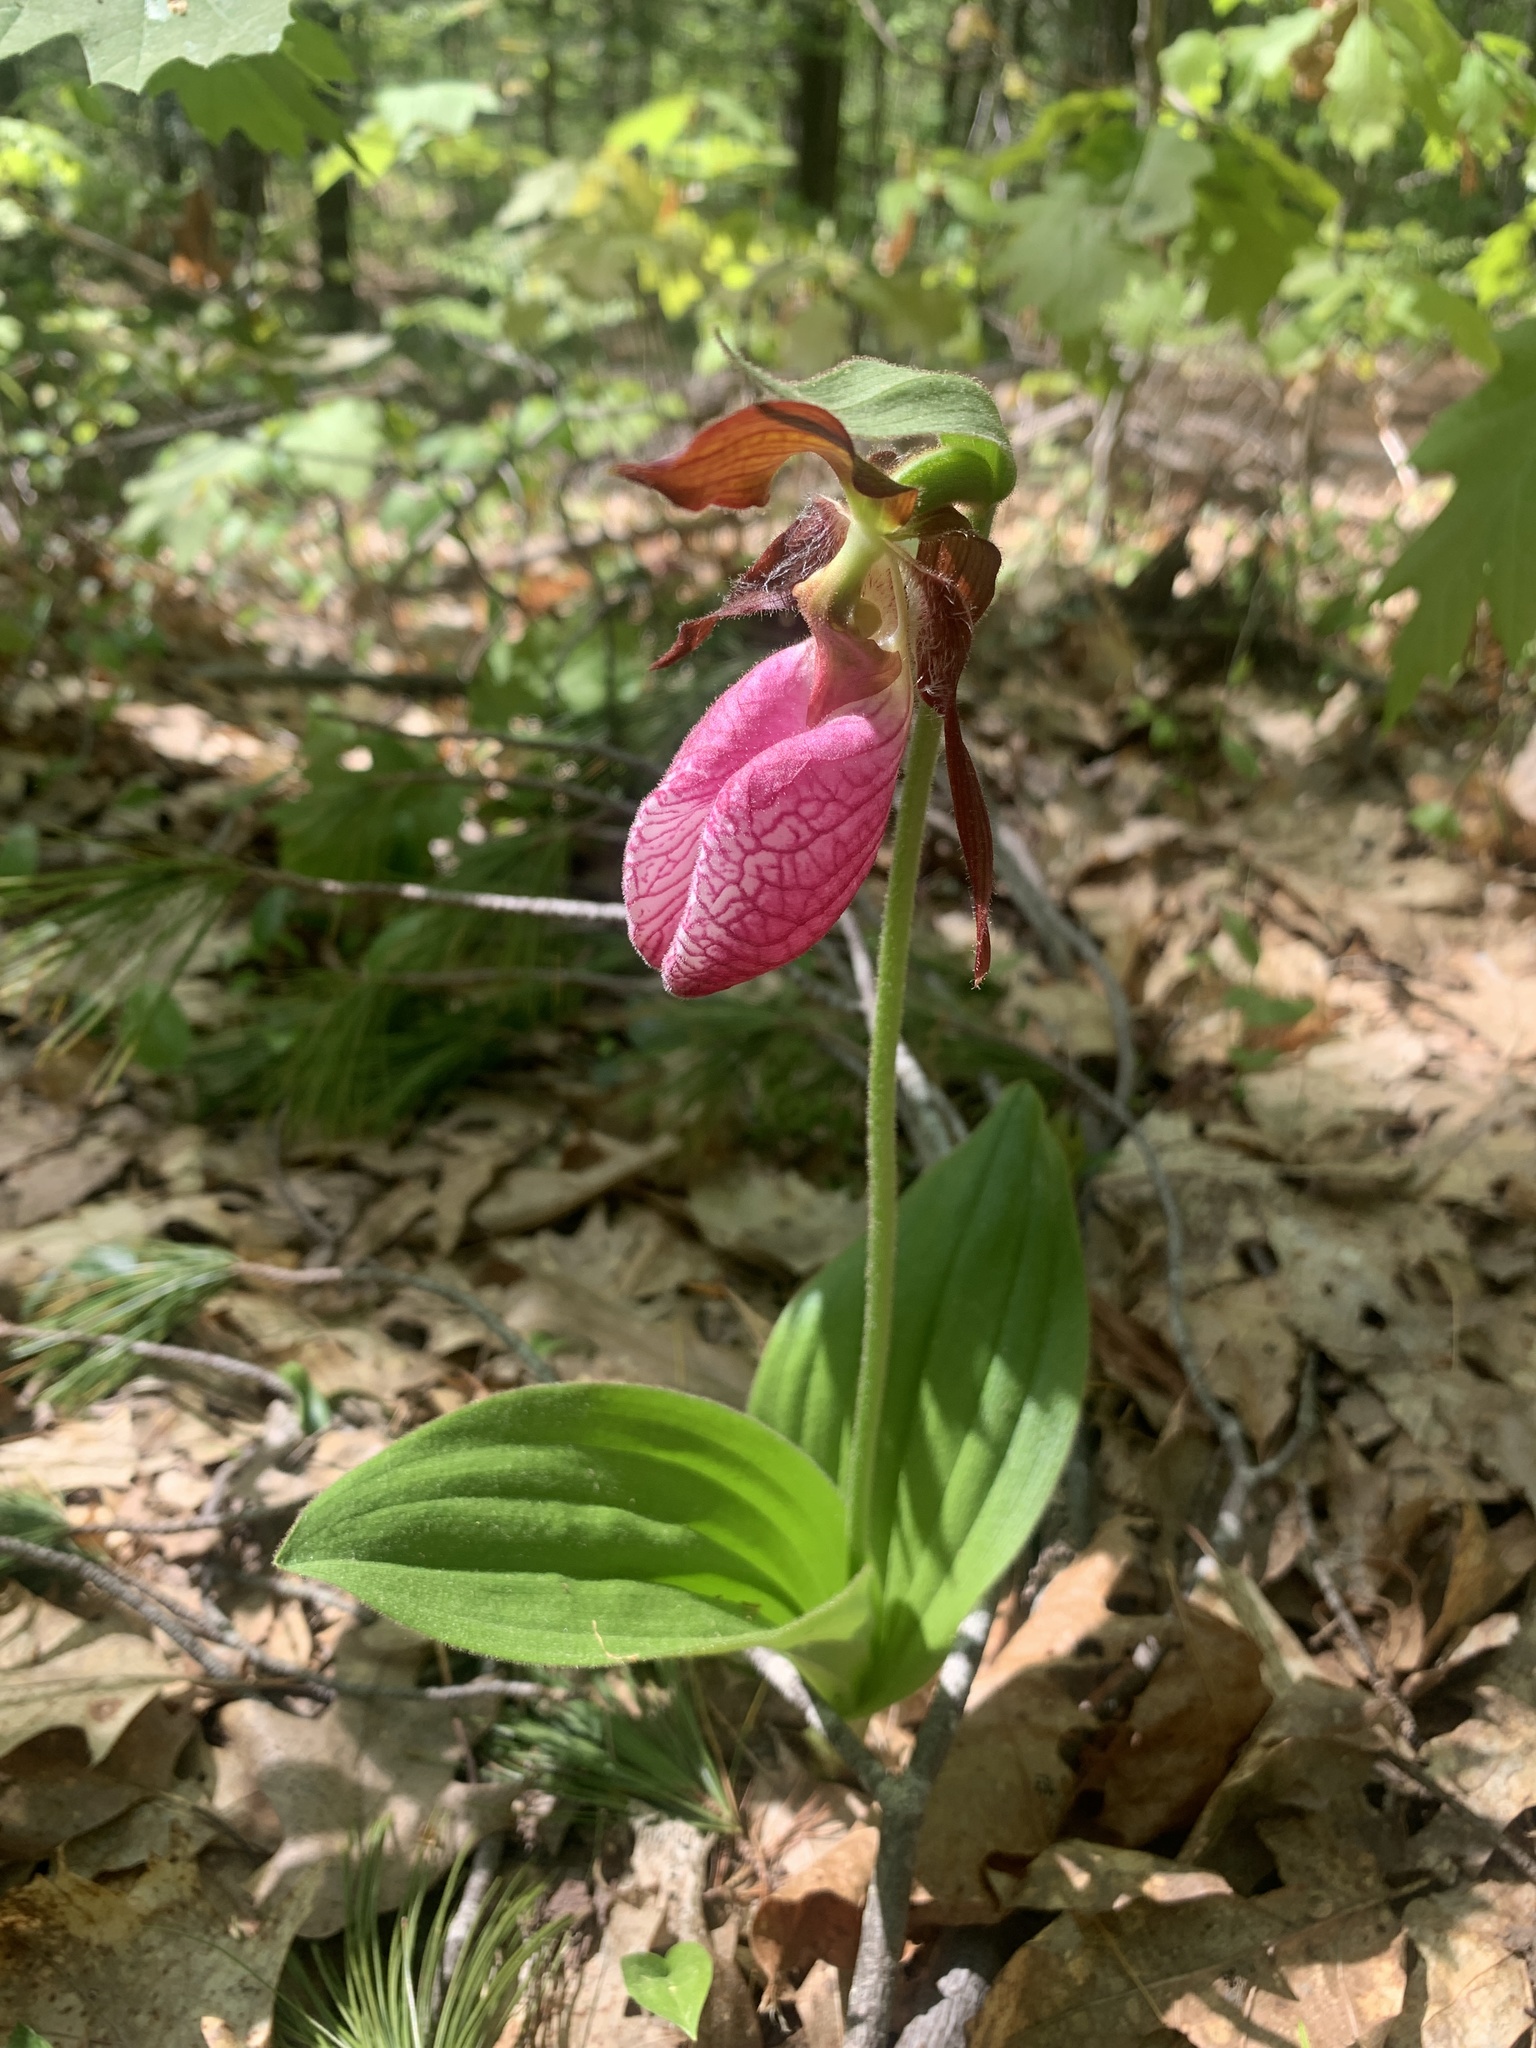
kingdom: Plantae
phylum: Tracheophyta
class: Liliopsida
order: Asparagales
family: Orchidaceae
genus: Cypripedium
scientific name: Cypripedium acaule
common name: Pink lady's-slipper
